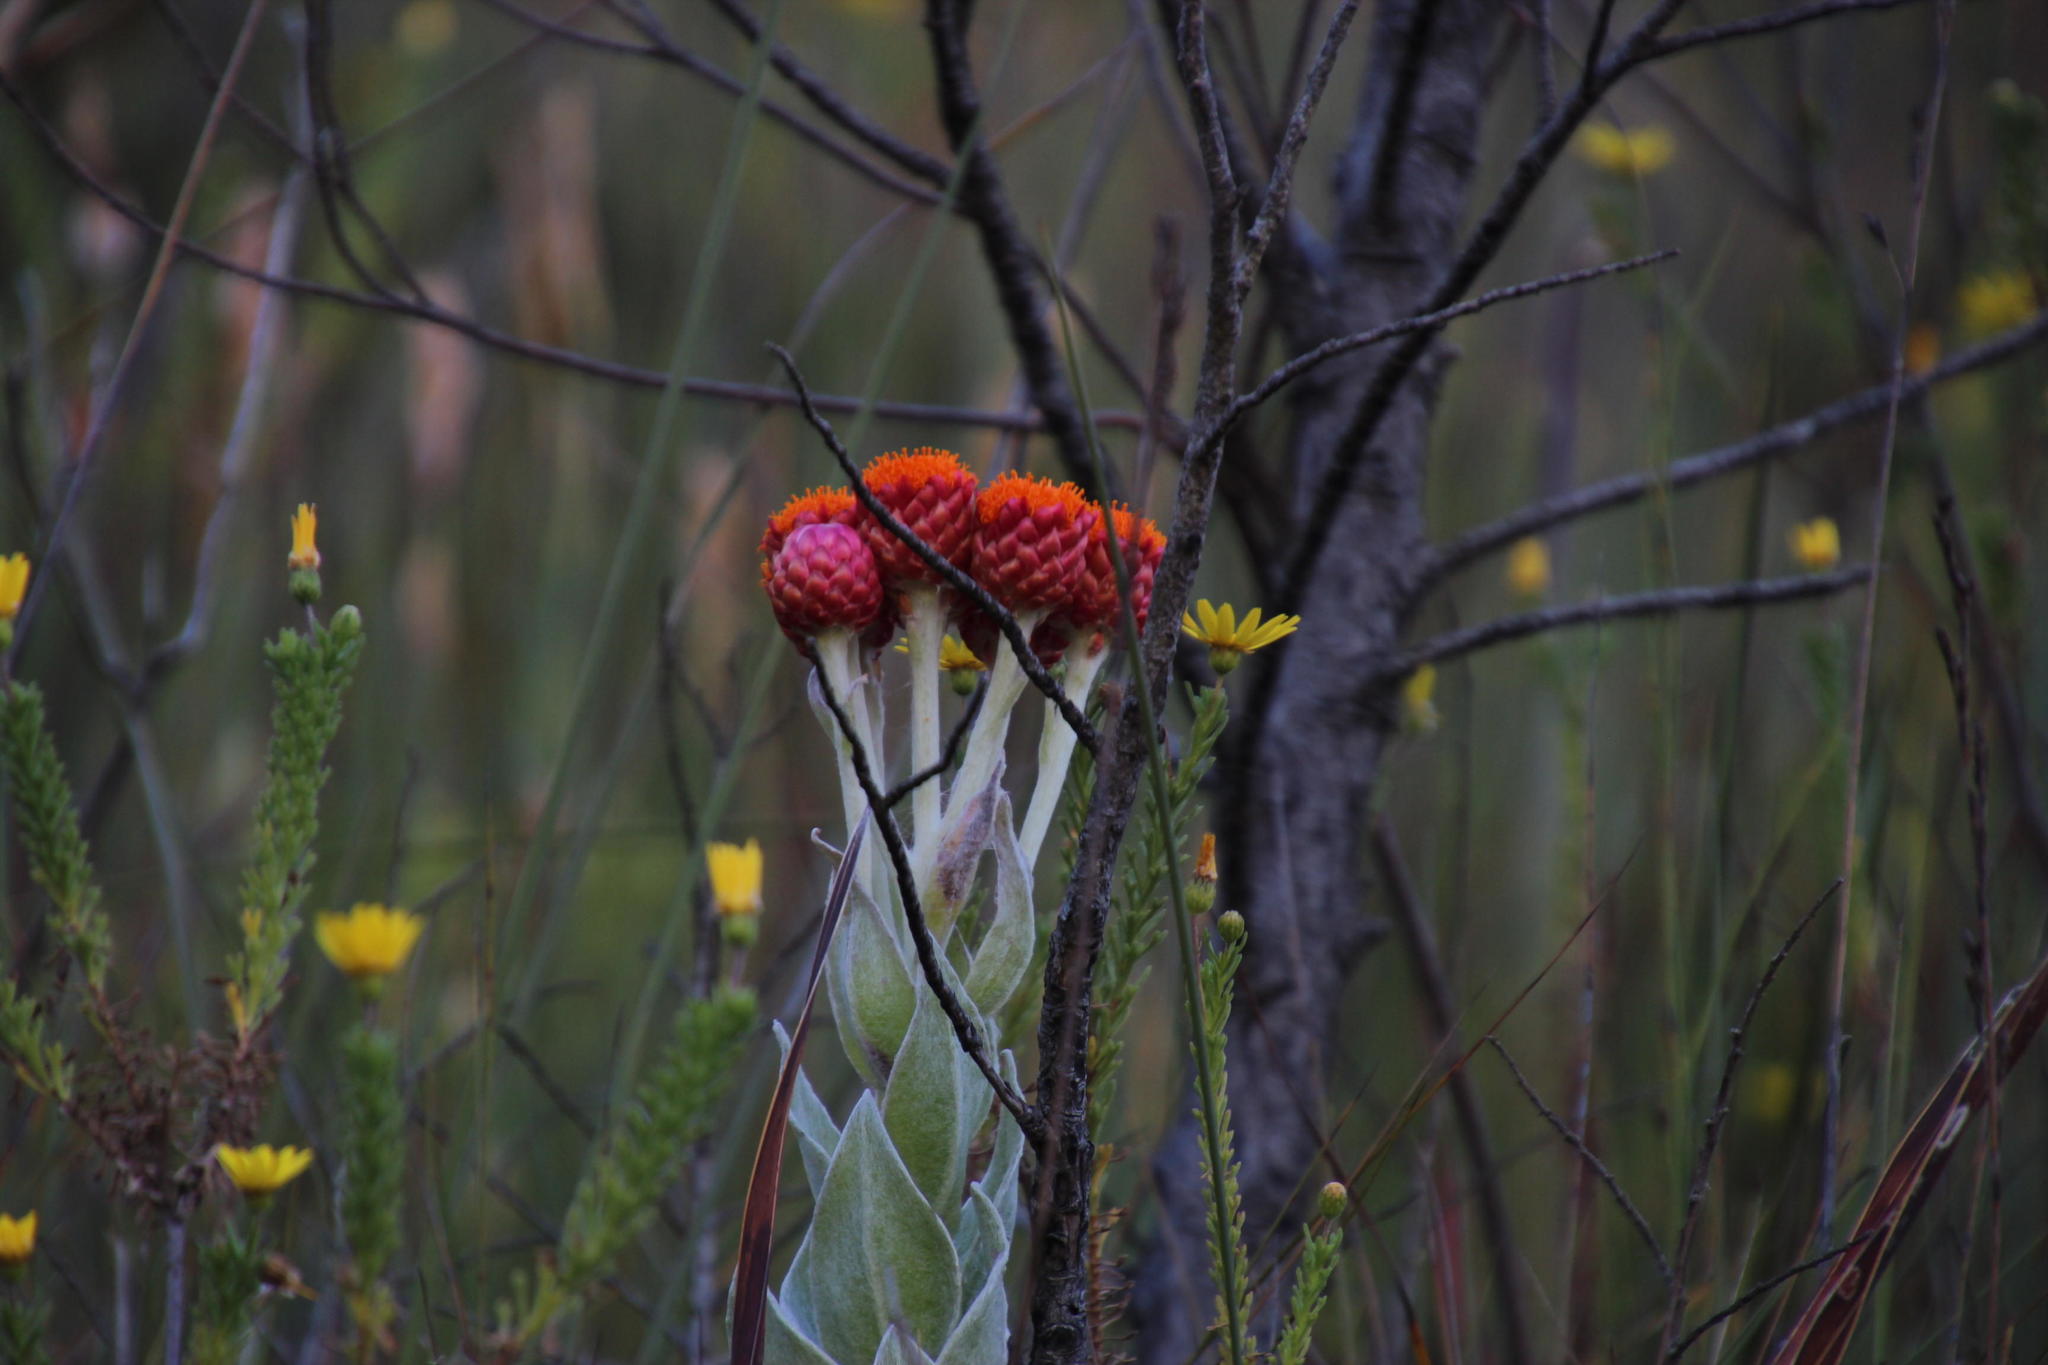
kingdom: Plantae
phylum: Tracheophyta
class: Magnoliopsida
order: Asterales
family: Asteraceae
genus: Syncarpha
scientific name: Syncarpha eximia
